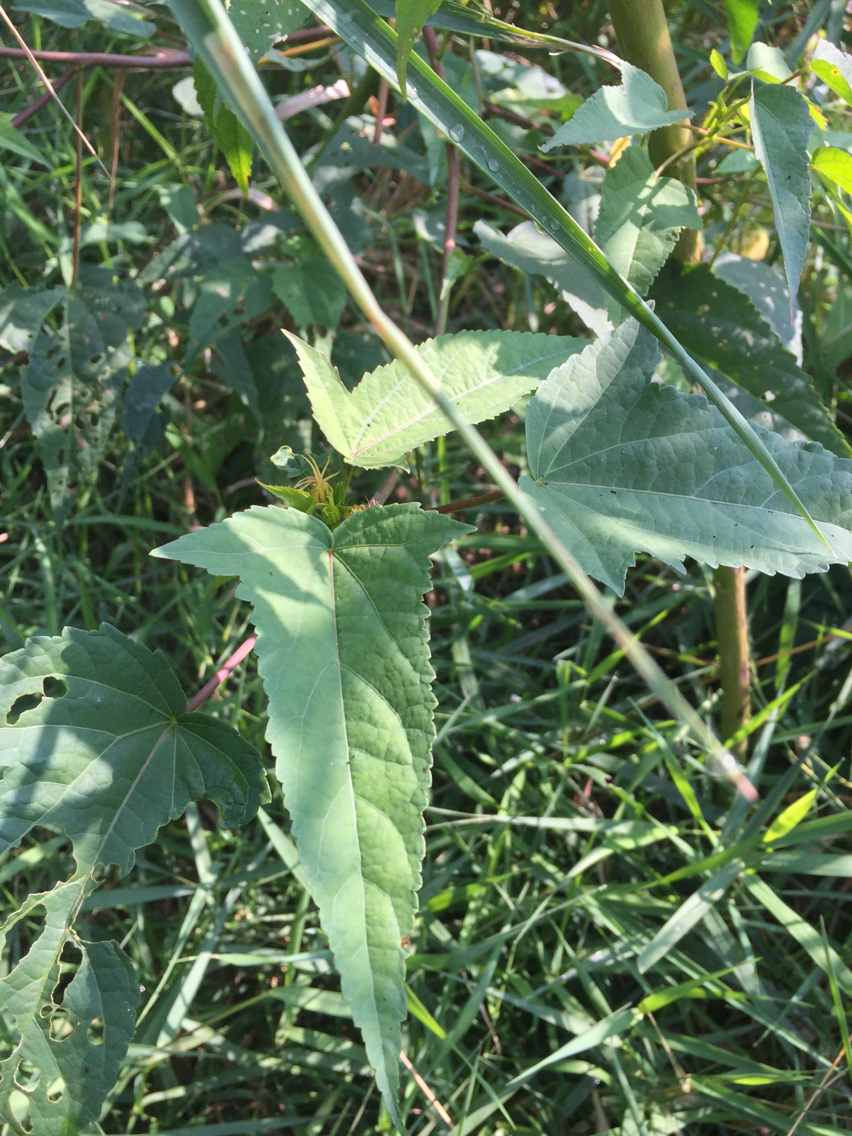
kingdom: Plantae
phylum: Tracheophyta
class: Magnoliopsida
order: Malvales
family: Malvaceae
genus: Hibiscus
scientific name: Hibiscus laevis
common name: Scarlet rose-mallow
